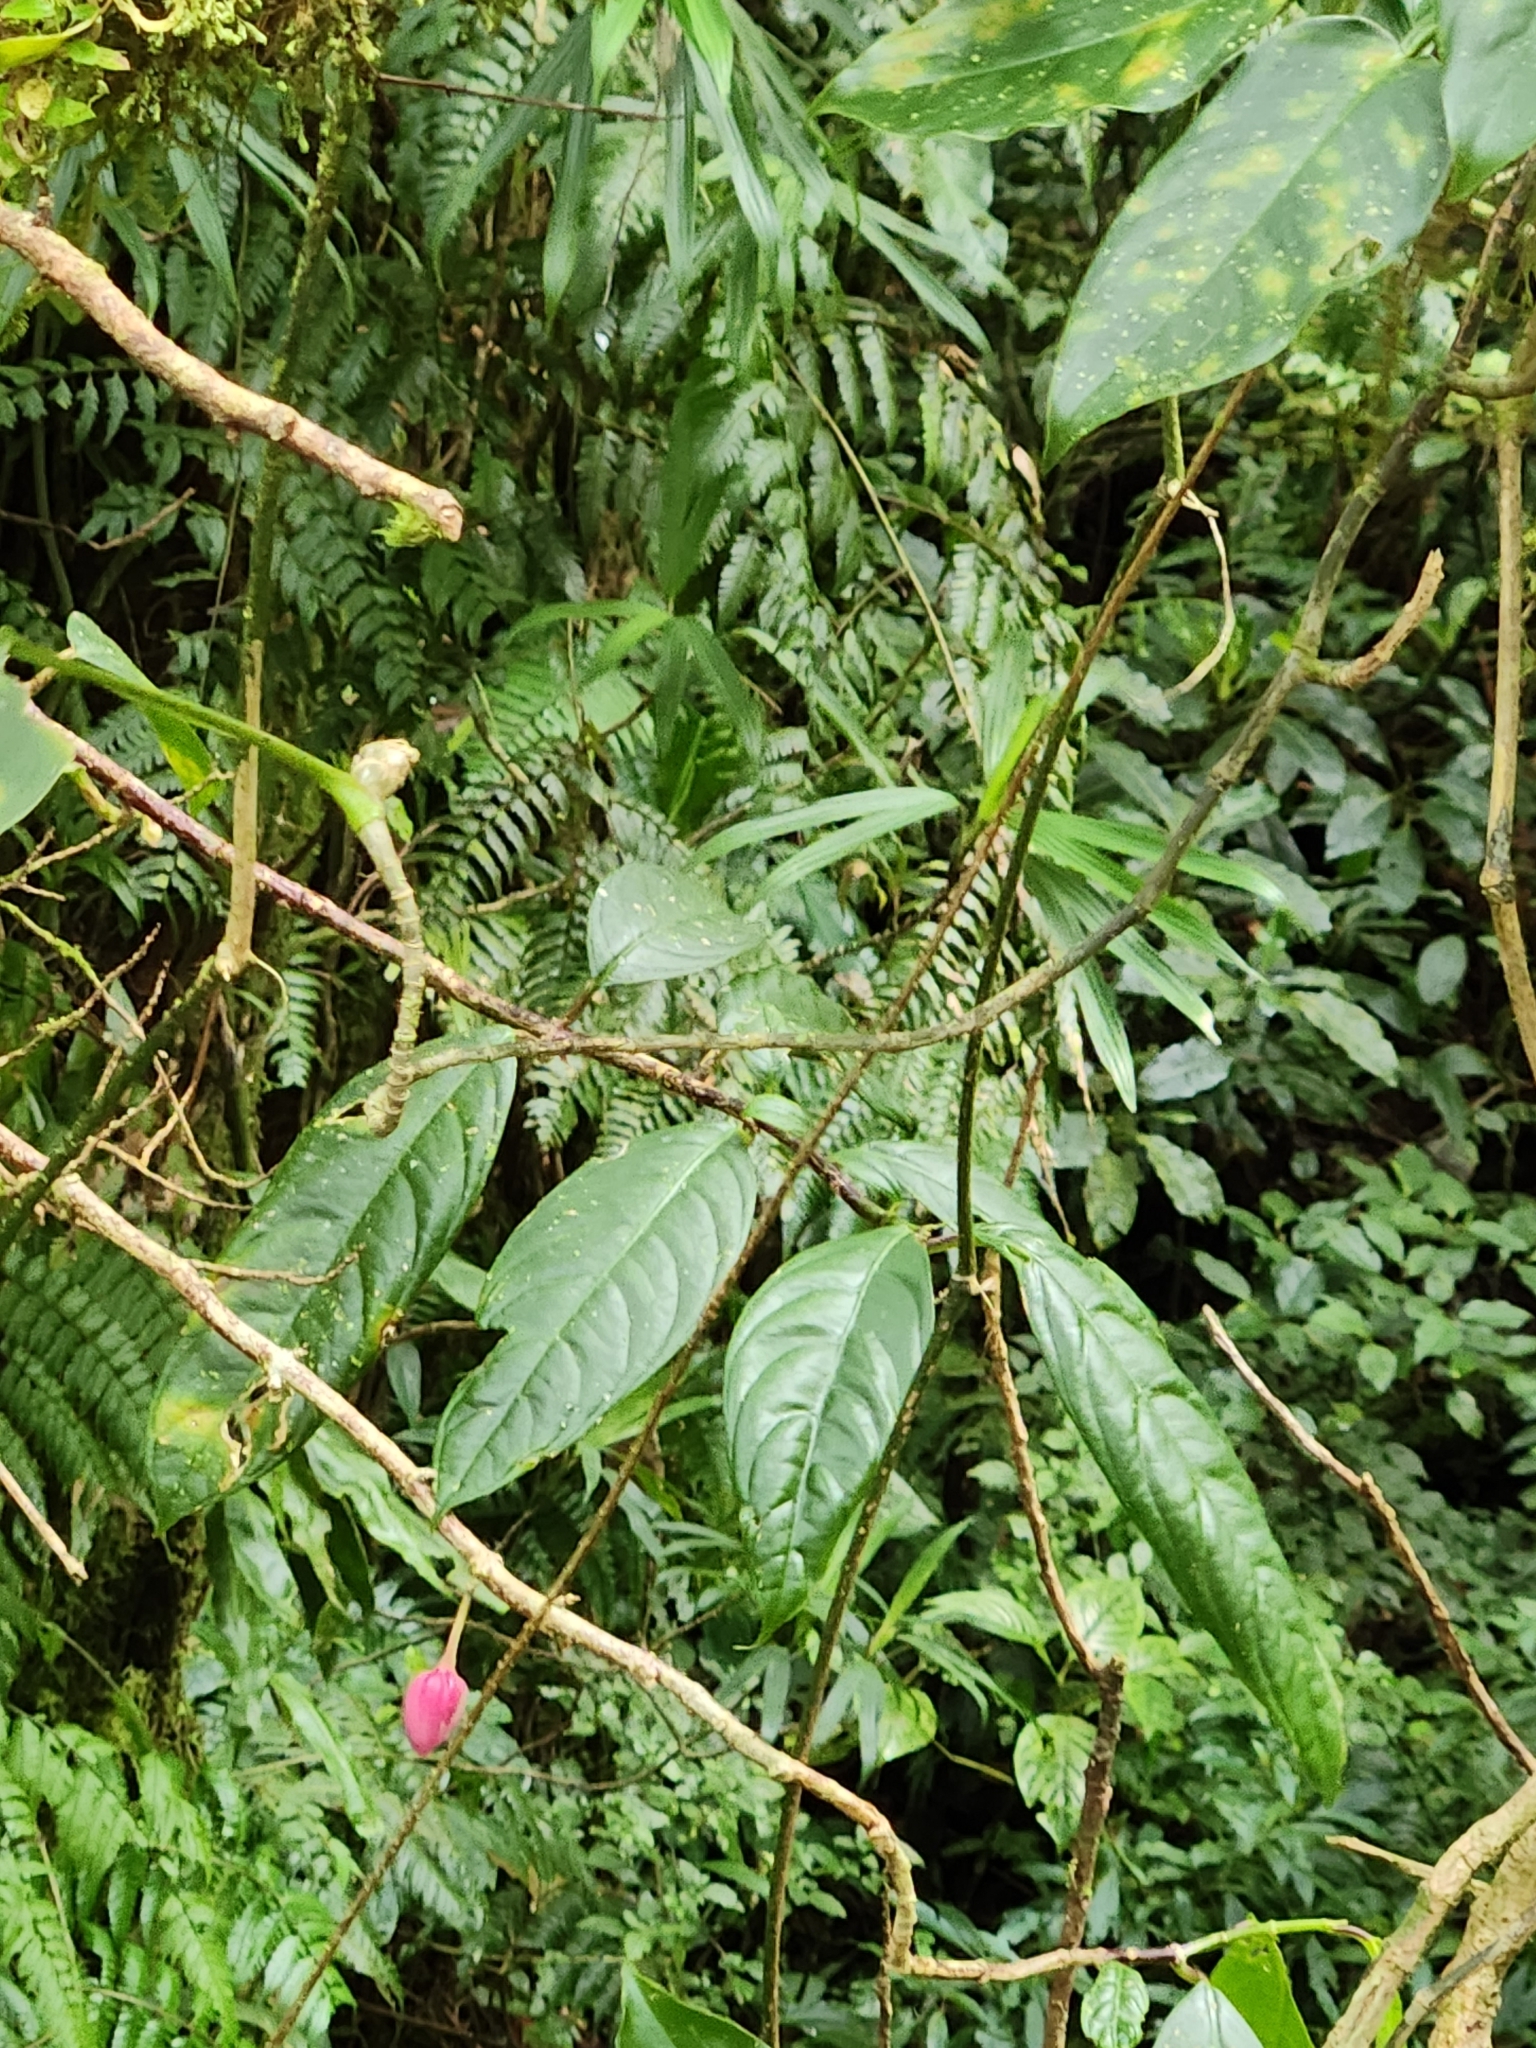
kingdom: Plantae
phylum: Tracheophyta
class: Magnoliopsida
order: Lamiales
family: Gesneriaceae
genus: Drymonia
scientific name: Drymonia conchocalyx
